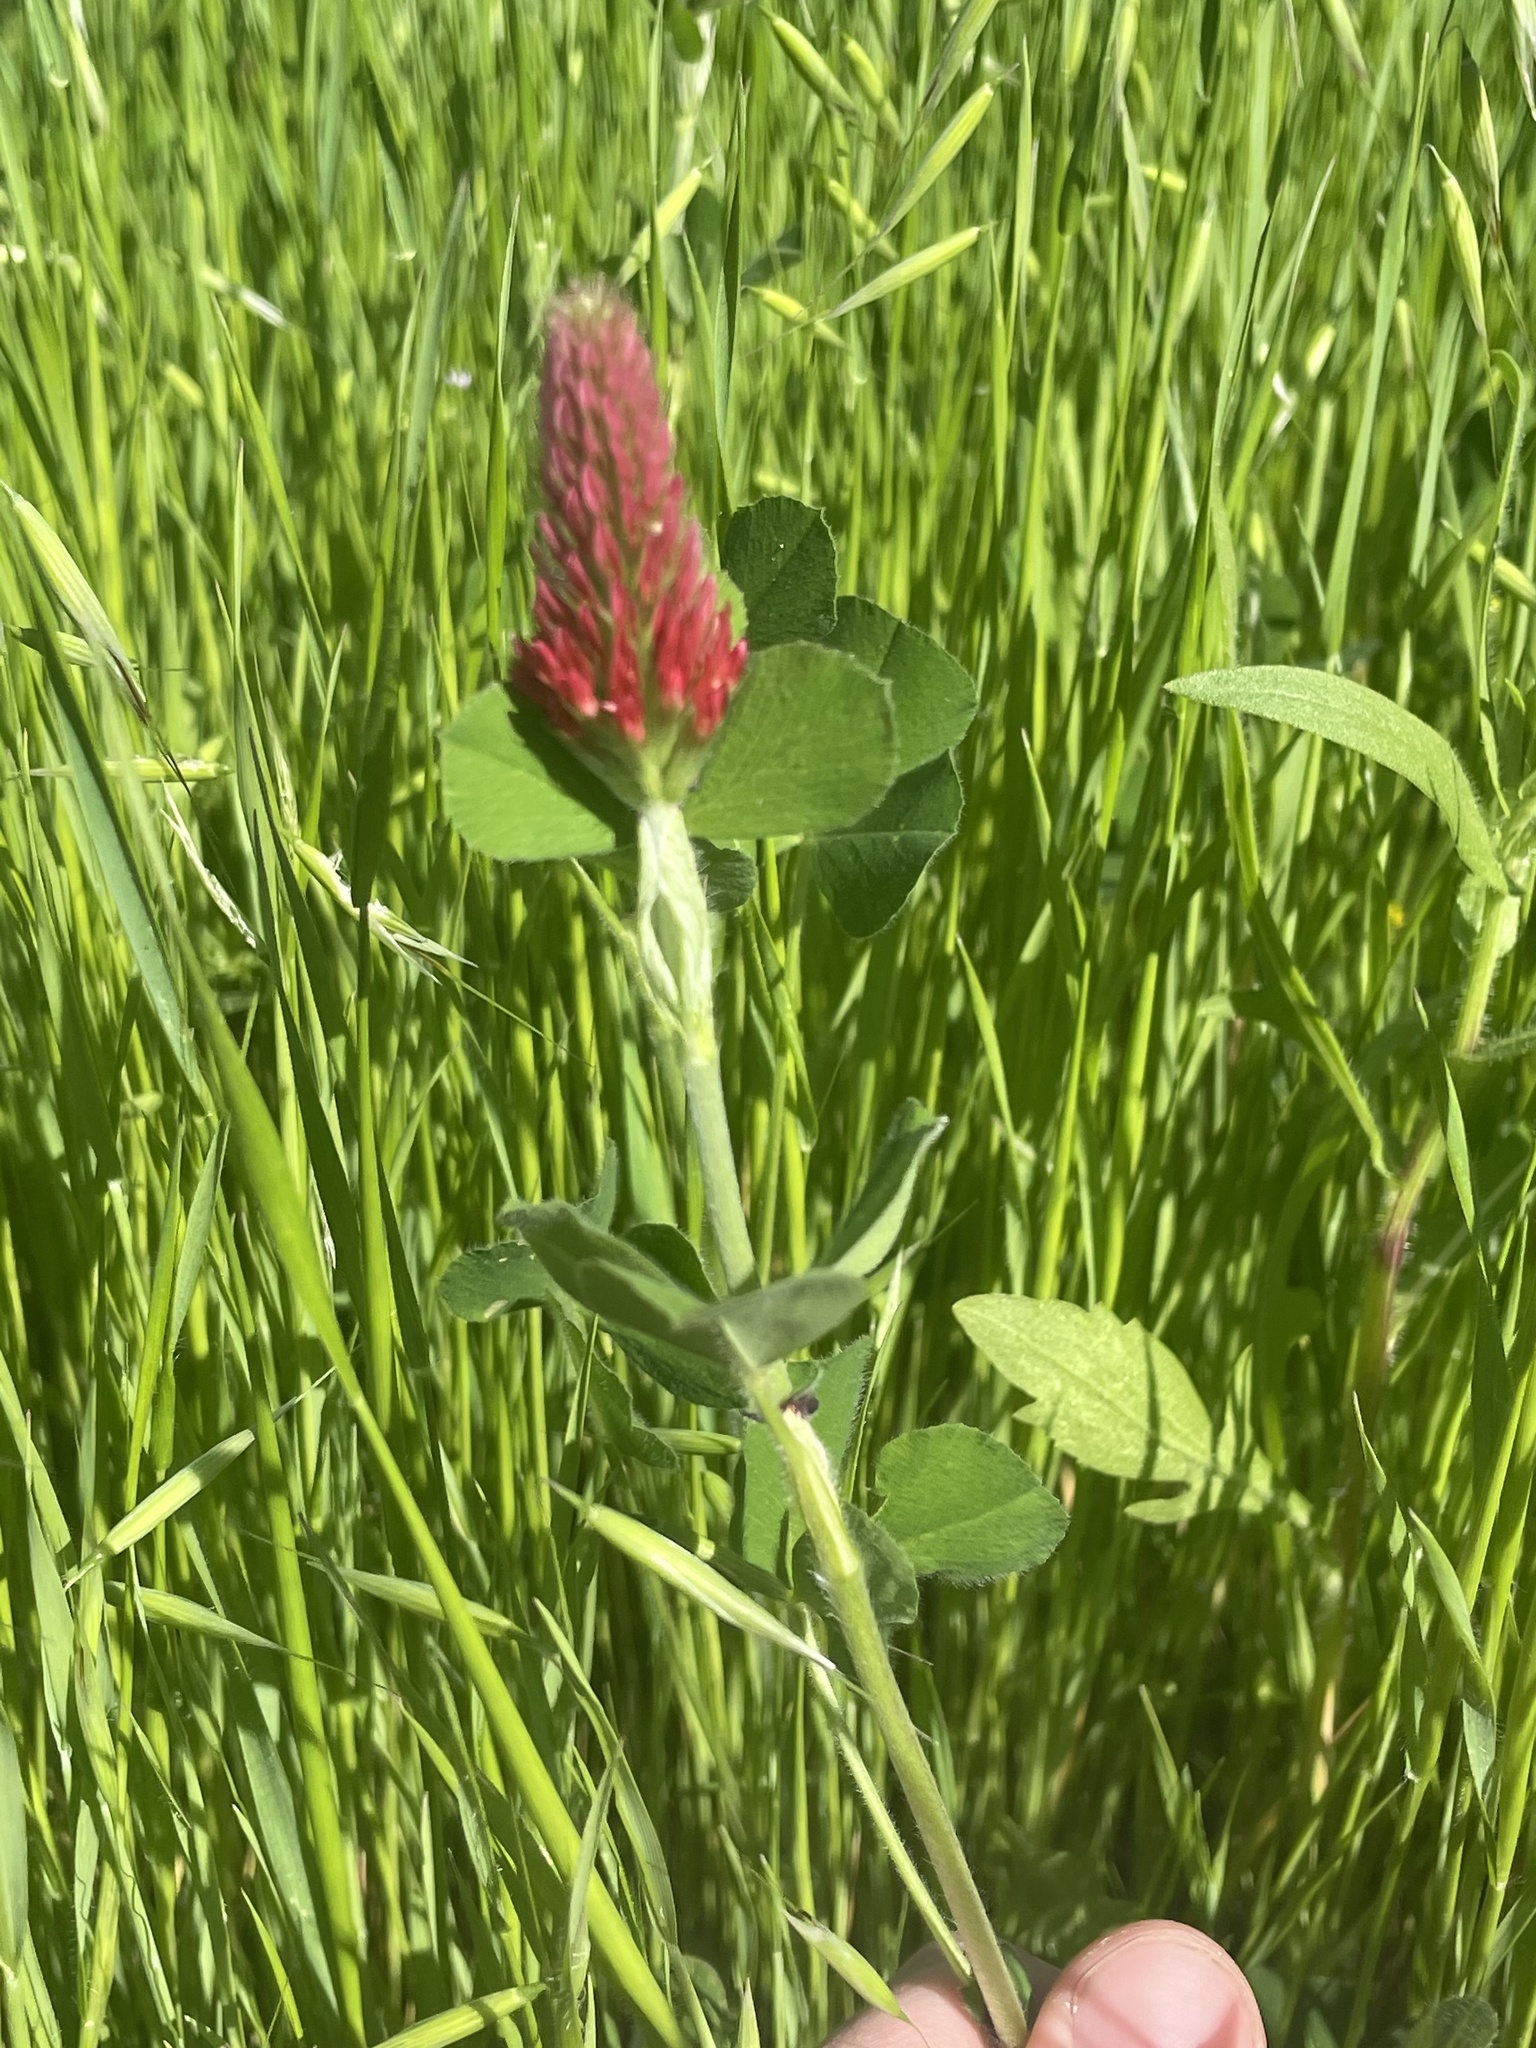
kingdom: Plantae
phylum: Tracheophyta
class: Magnoliopsida
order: Fabales
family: Fabaceae
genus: Trifolium
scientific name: Trifolium incarnatum
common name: Crimson clover
